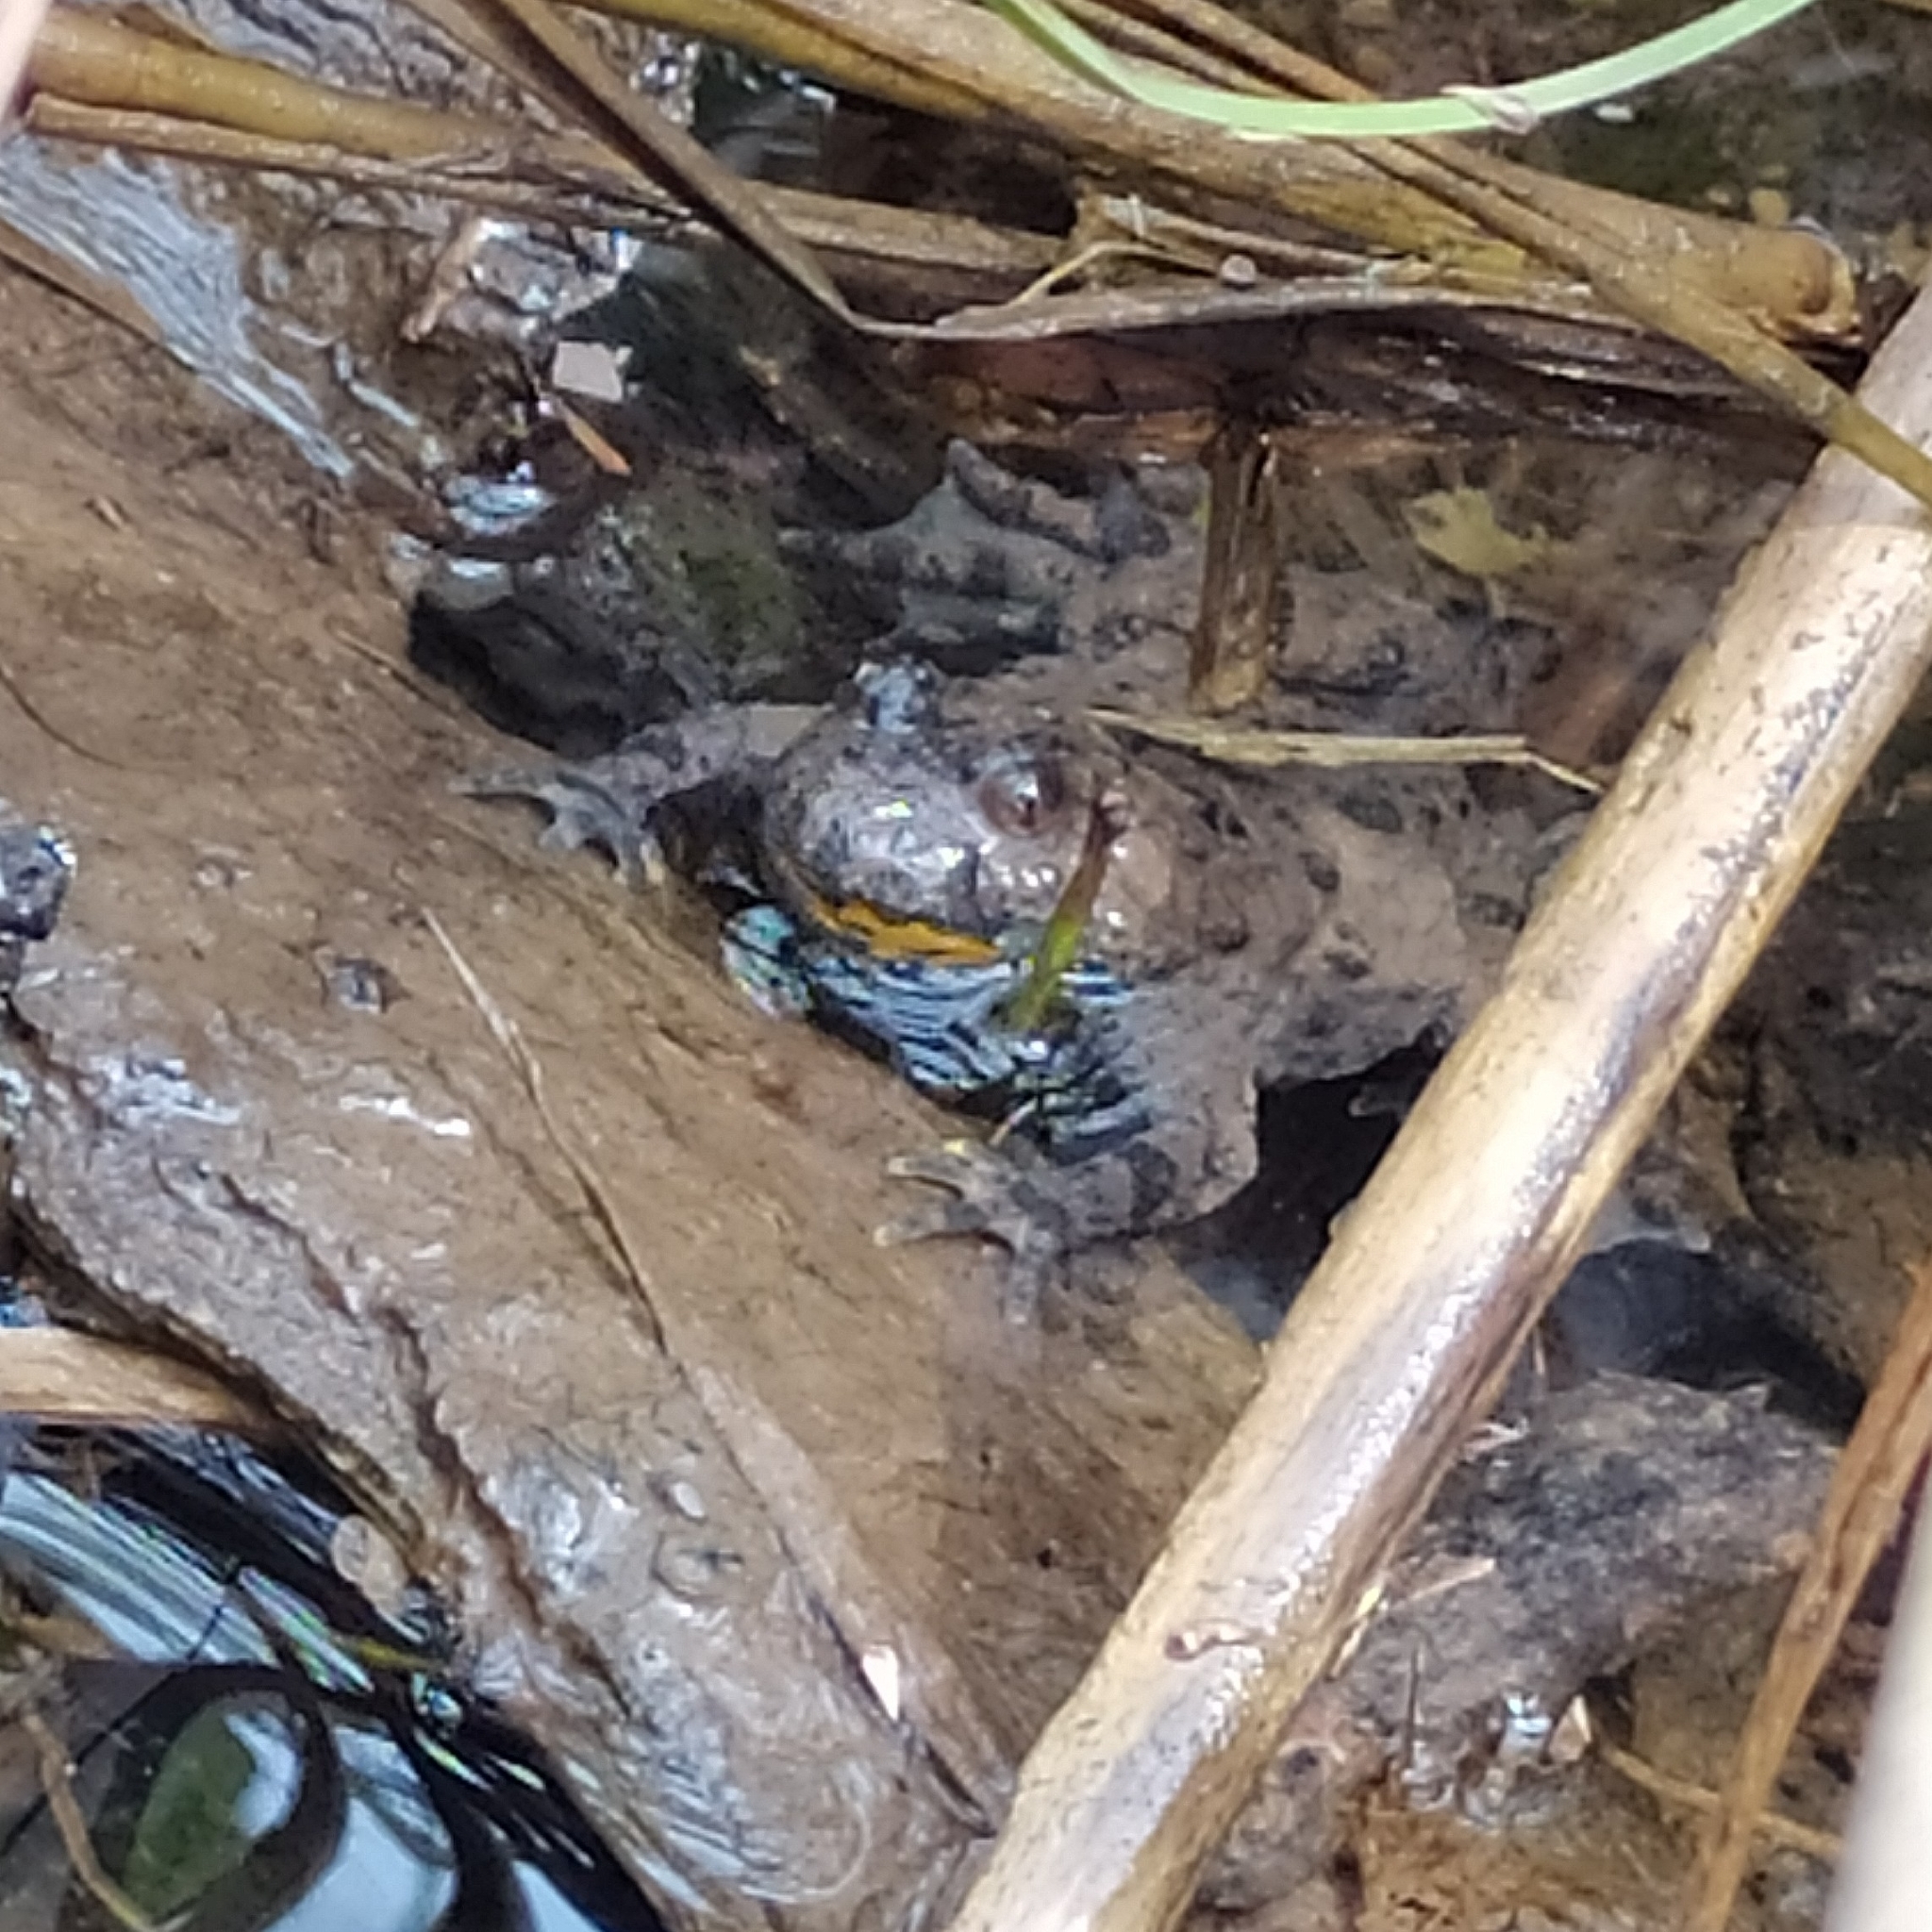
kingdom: Animalia
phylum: Chordata
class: Amphibia
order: Anura
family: Bombinatoridae
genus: Bombina
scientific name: Bombina variegata
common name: Yellow-bellied toad
